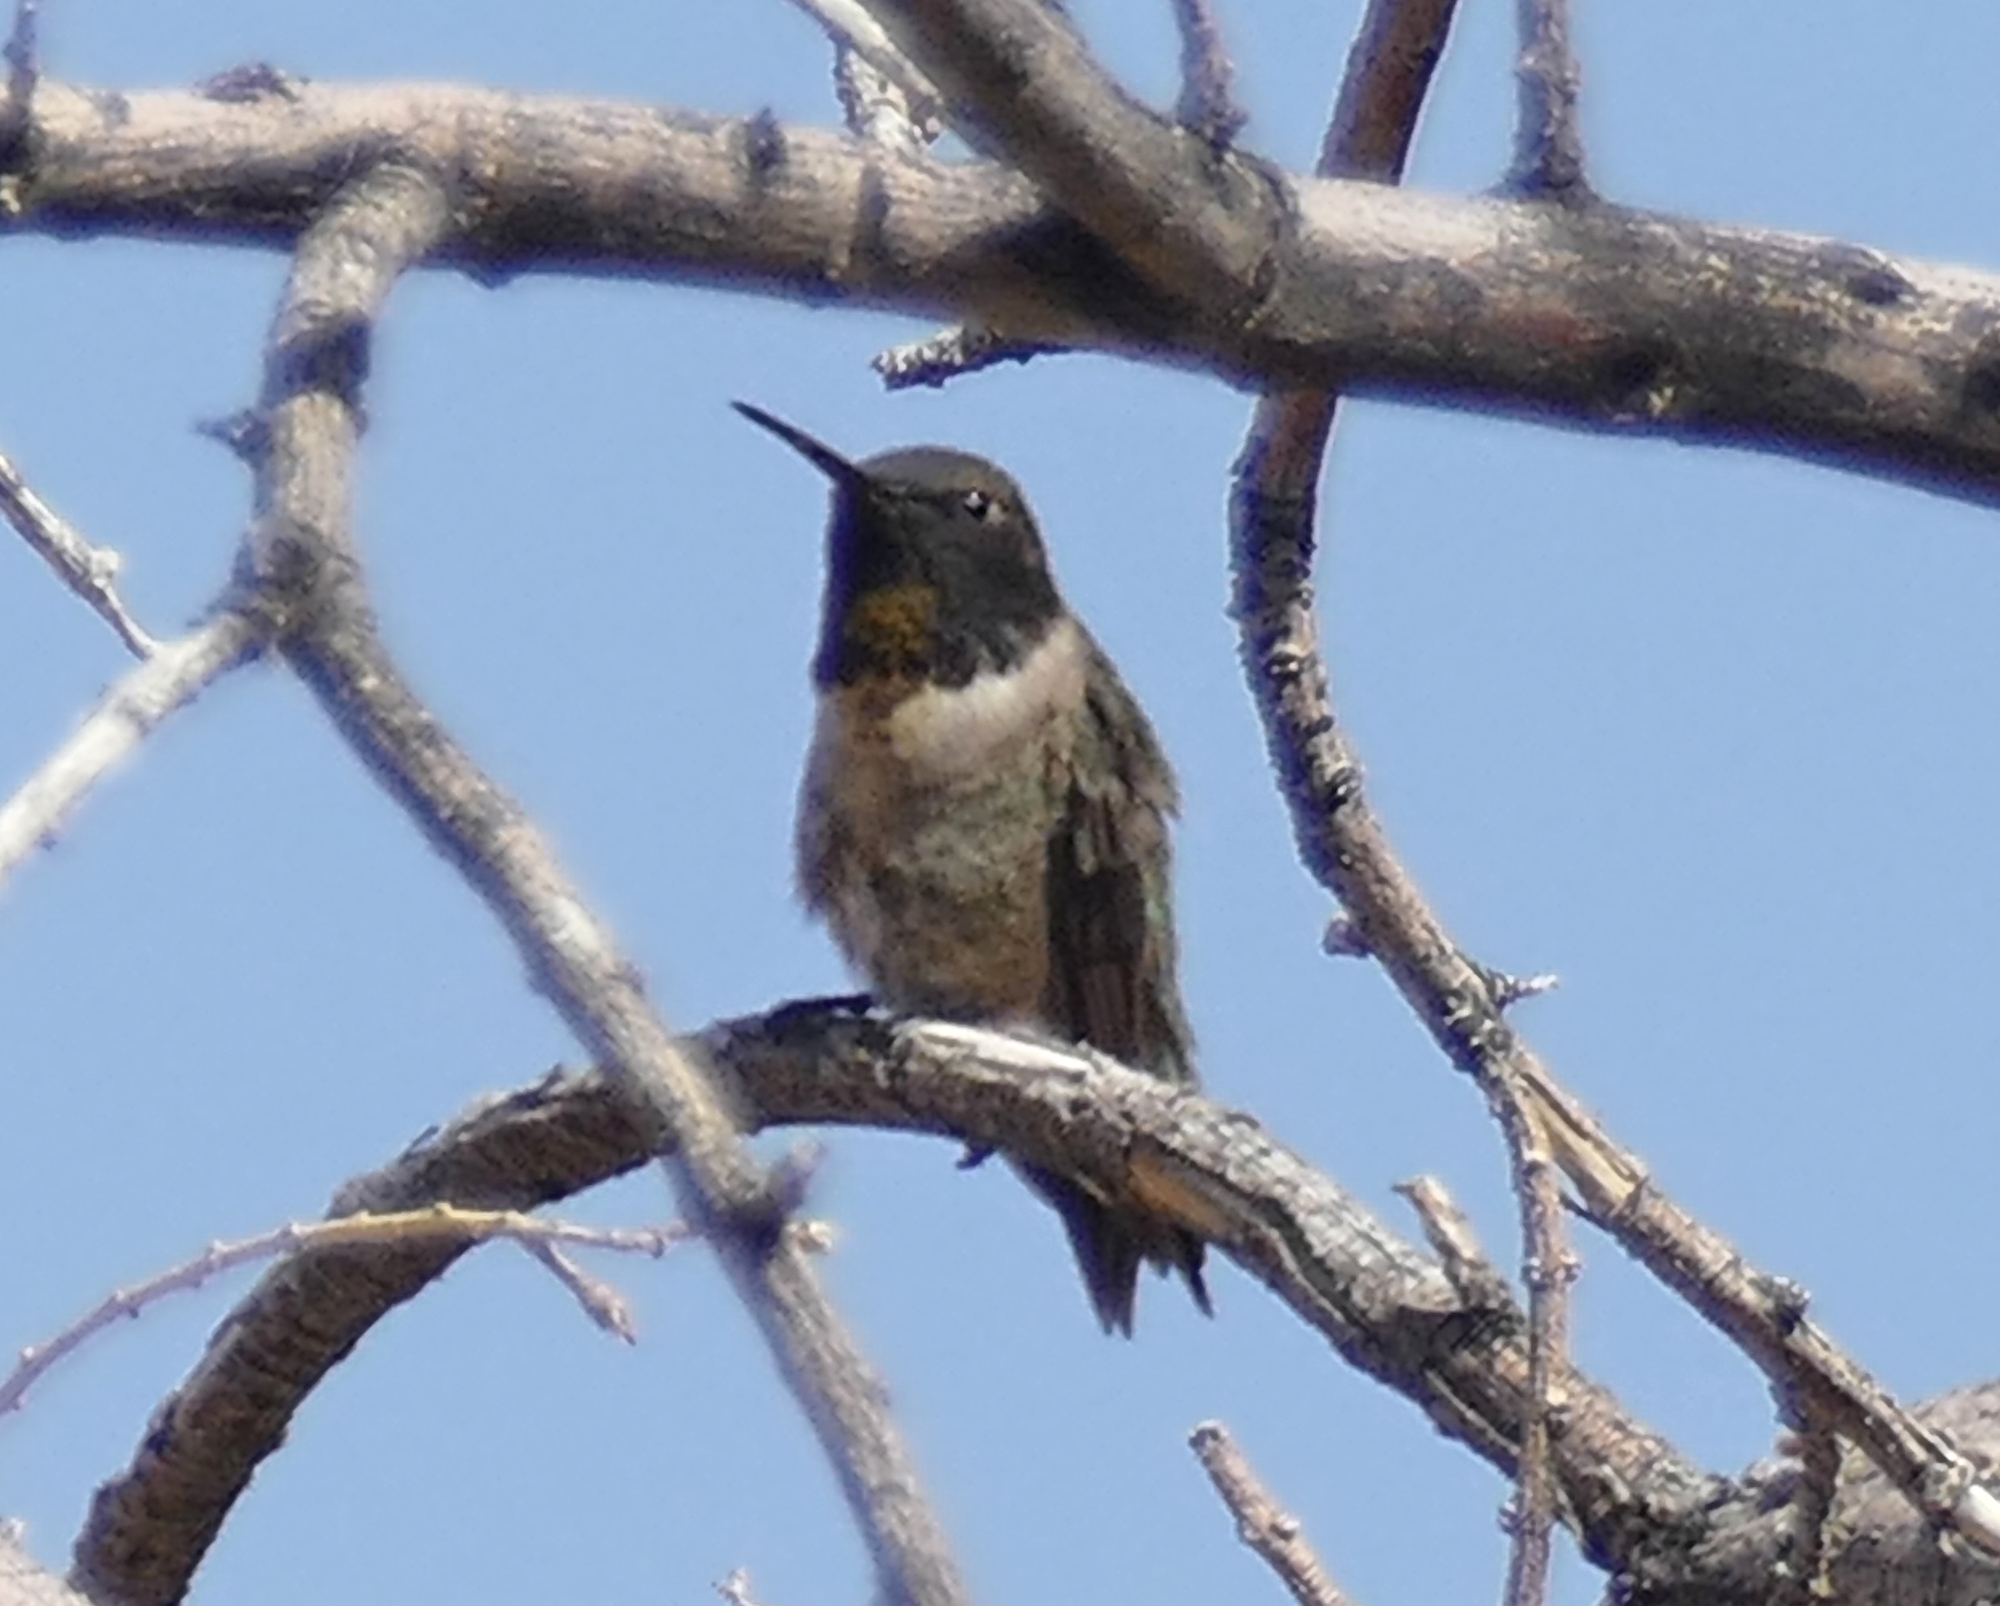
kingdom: Animalia
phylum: Chordata
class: Aves
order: Apodiformes
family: Trochilidae
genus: Archilochus
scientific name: Archilochus alexandri
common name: Black-chinned hummingbird
